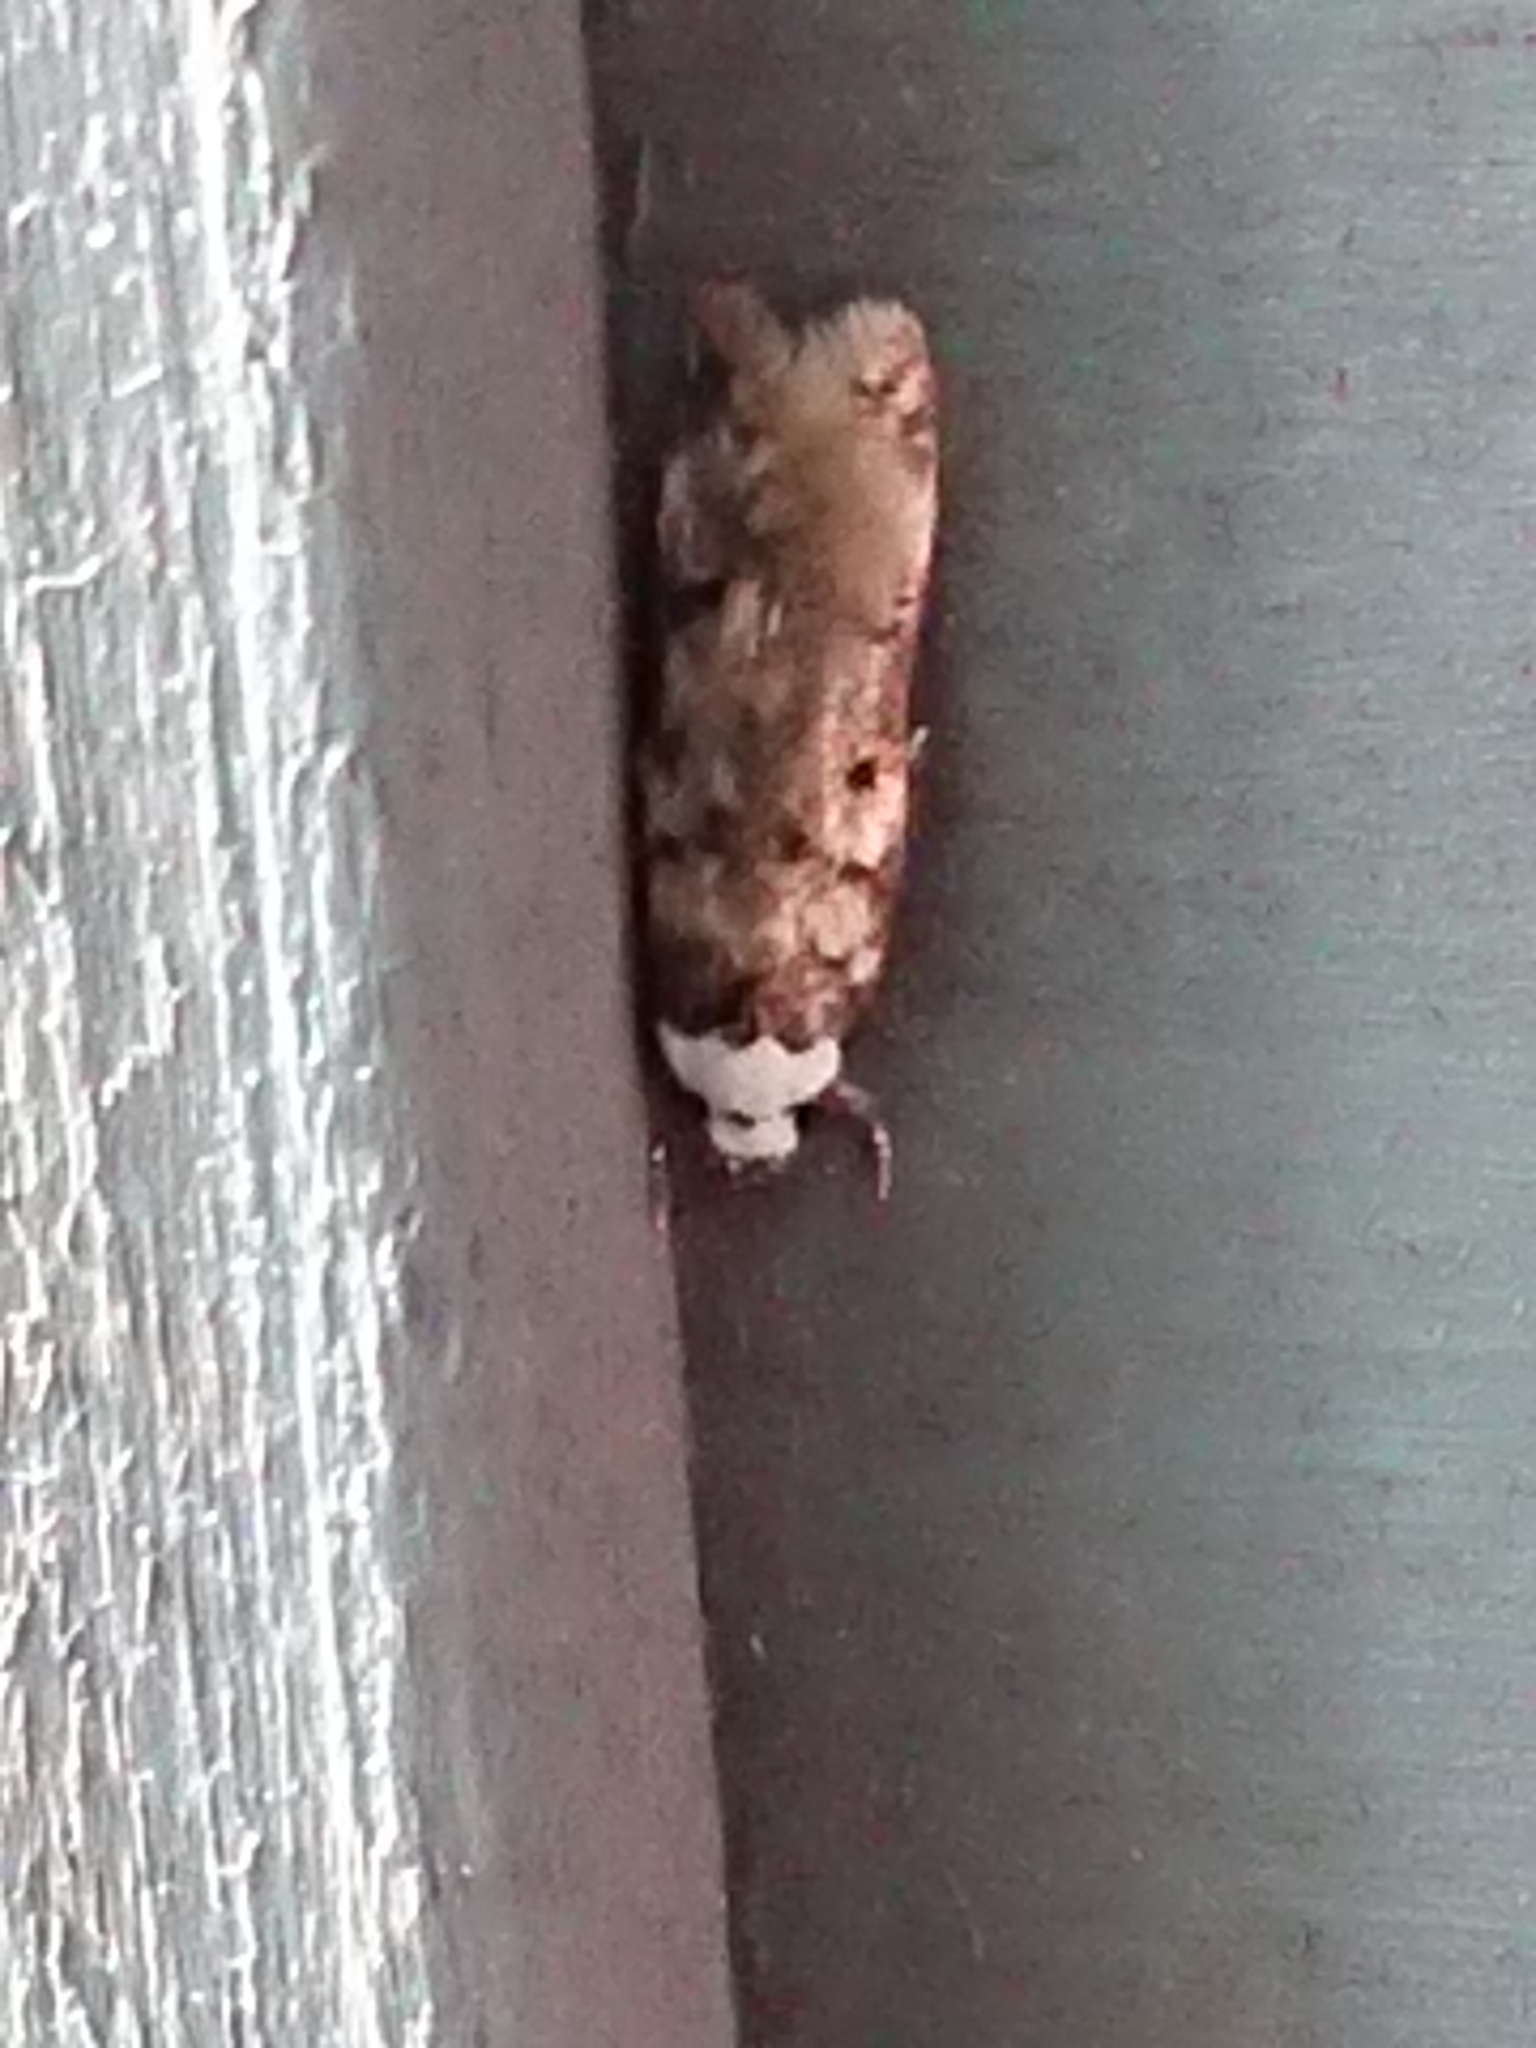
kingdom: Animalia
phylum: Arthropoda
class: Insecta
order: Lepidoptera
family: Oecophoridae
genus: Endrosis
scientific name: Endrosis sarcitrella
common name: White-shouldered house moth
